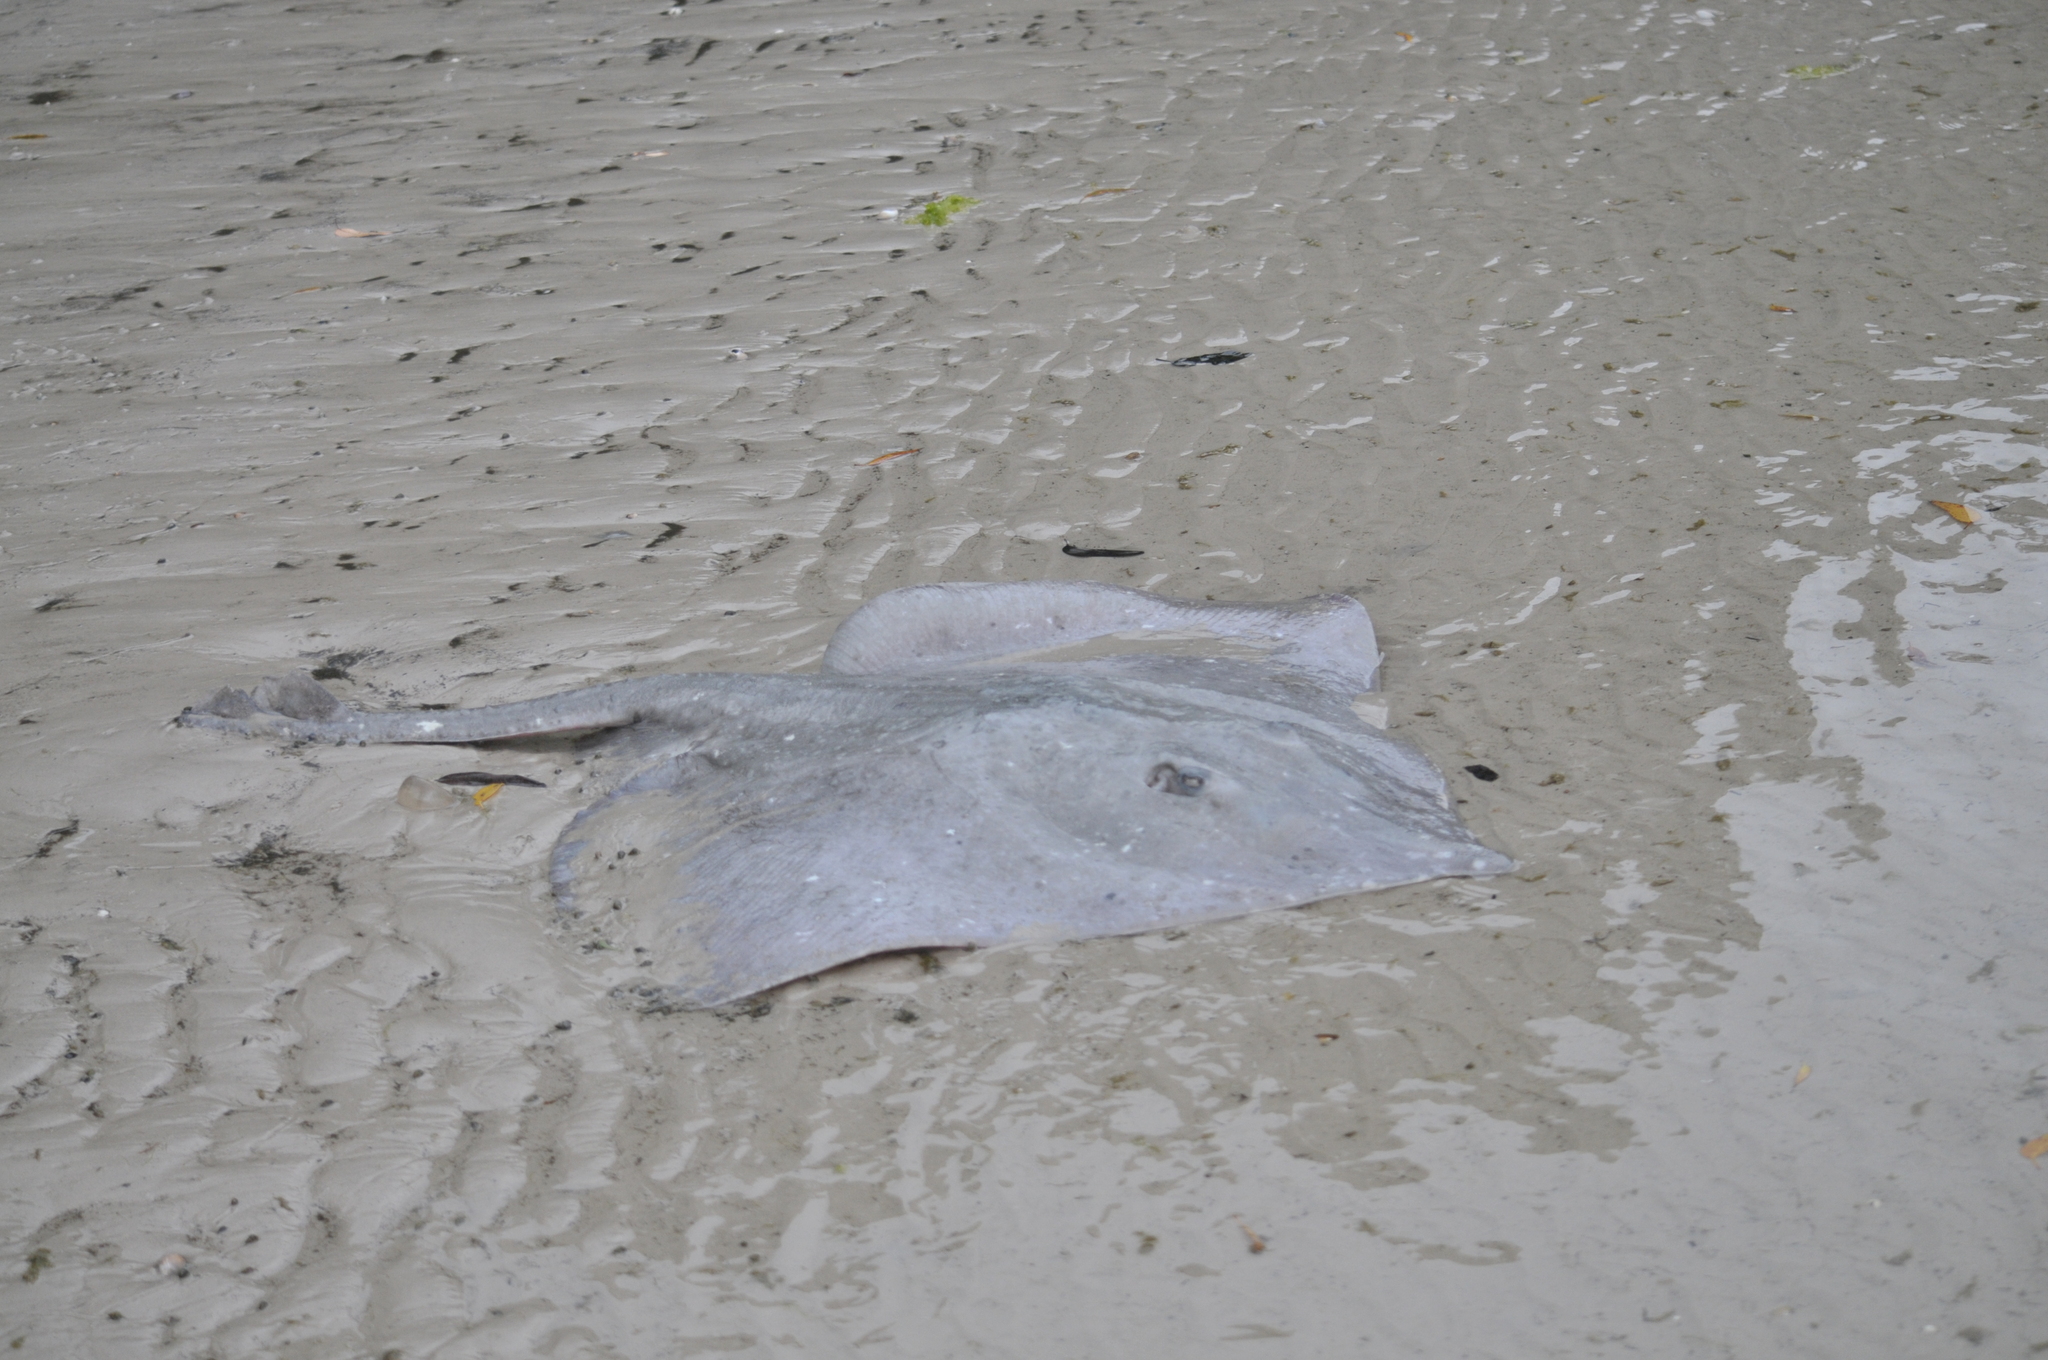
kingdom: Animalia
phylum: Chordata
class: Elasmobranchii
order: Rajiformes
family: Rajidae
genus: Dipturus
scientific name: Dipturus whitleyi
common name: Wedgenose skate
